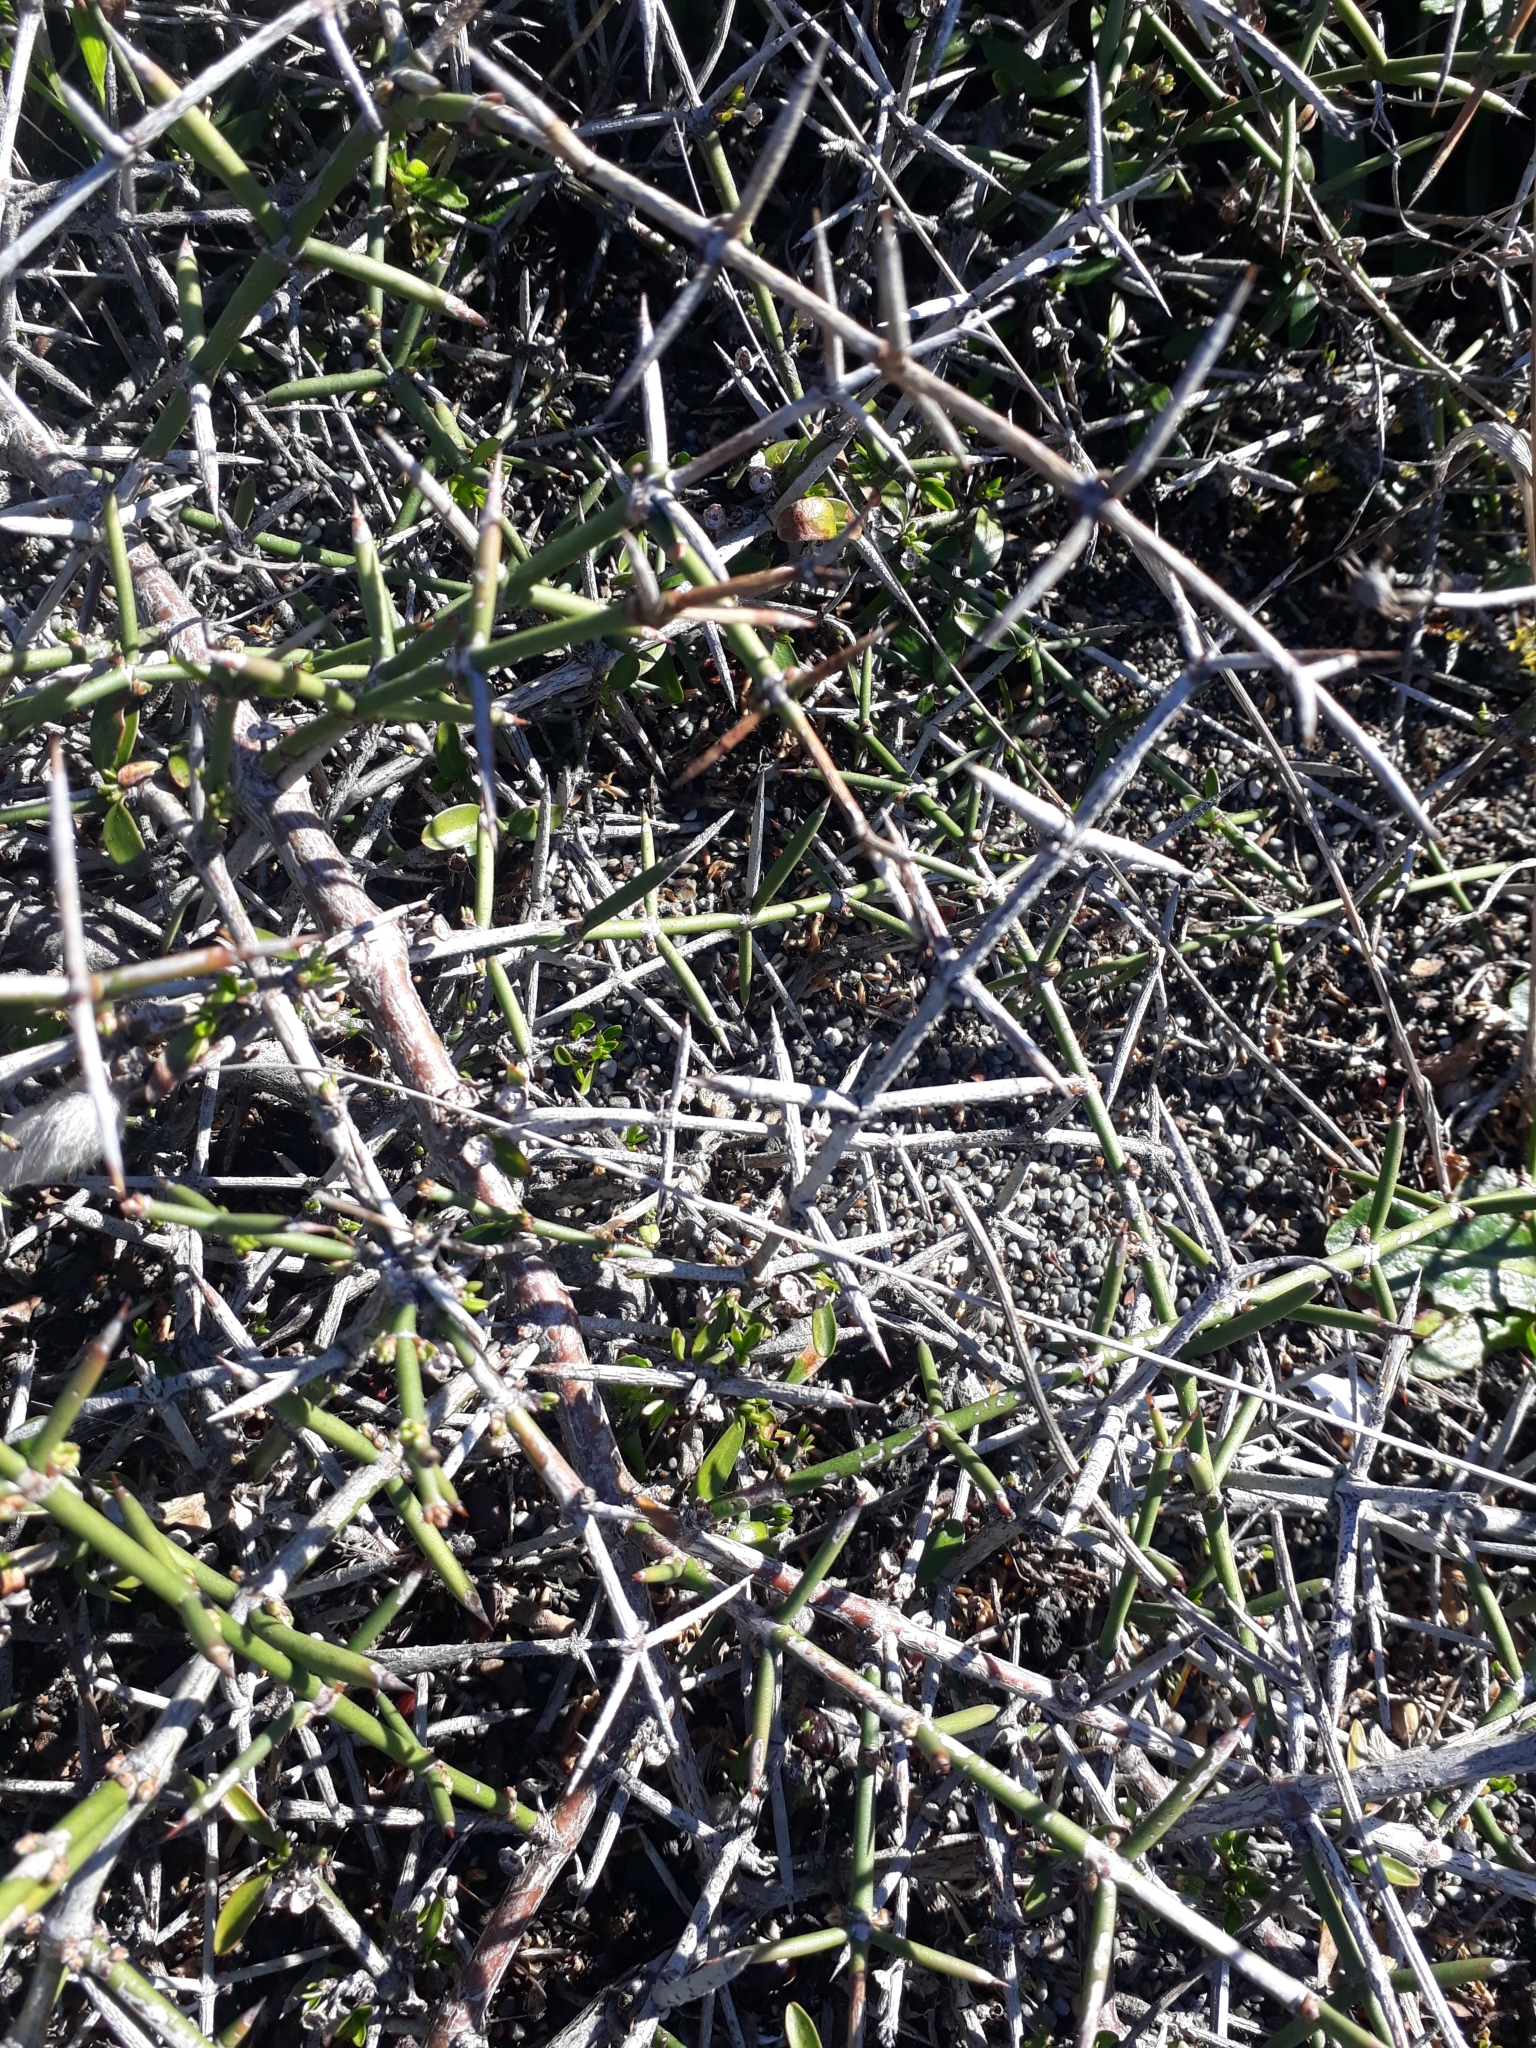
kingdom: Plantae
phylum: Tracheophyta
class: Magnoliopsida
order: Rosales
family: Rhamnaceae
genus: Discaria
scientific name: Discaria toumatou
